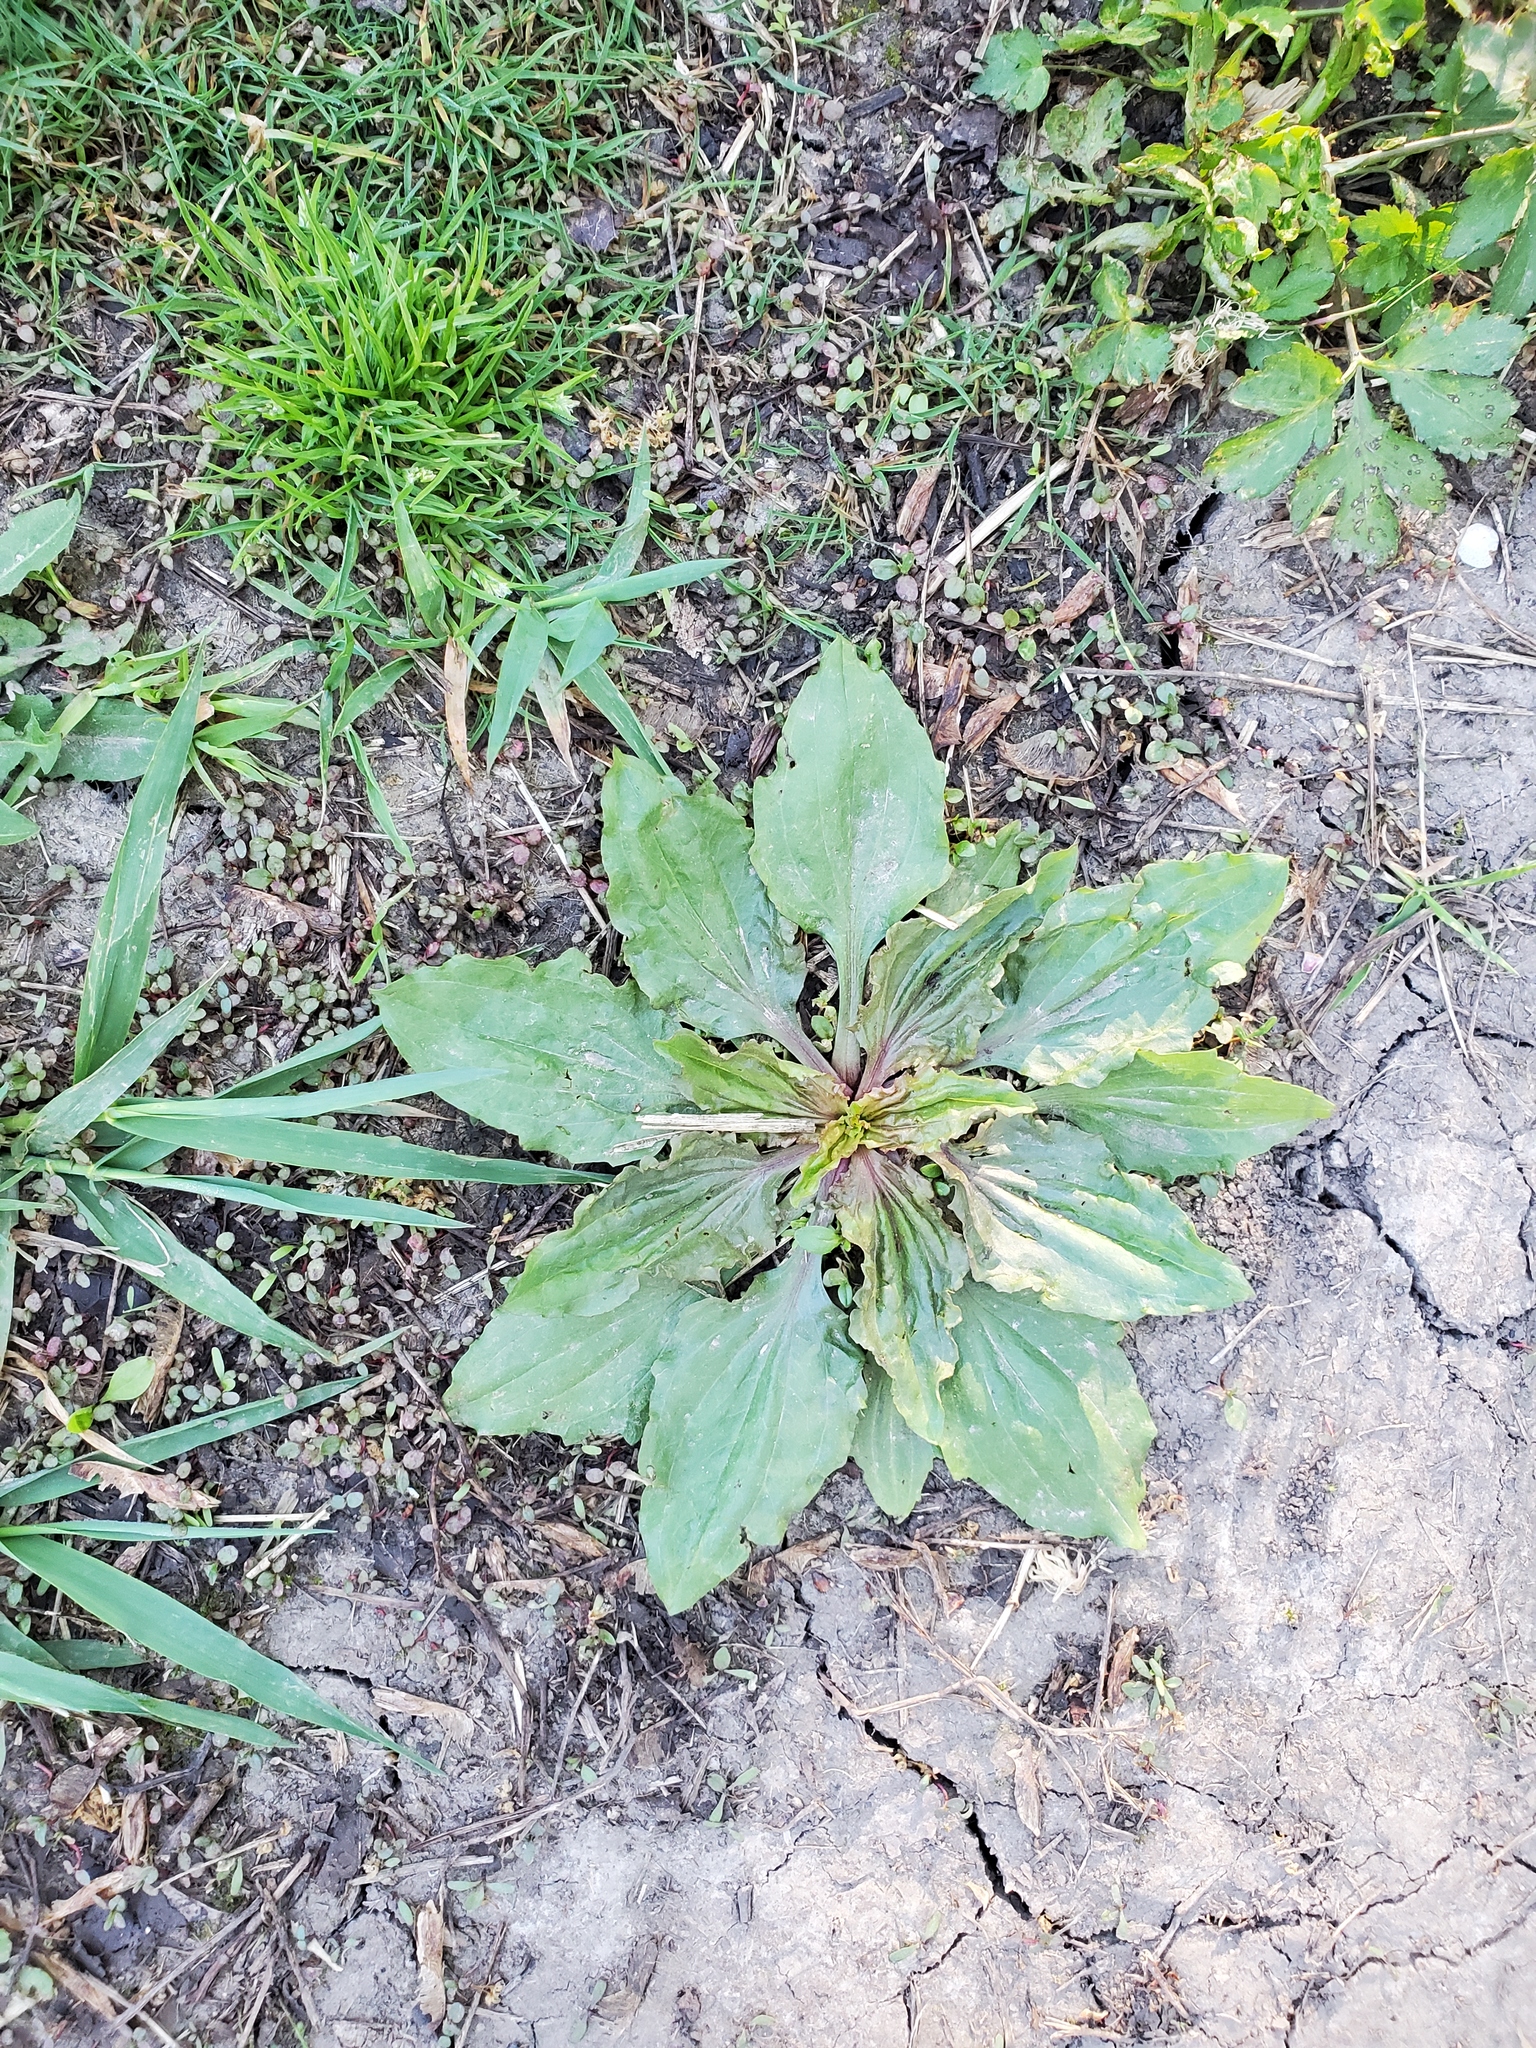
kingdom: Plantae
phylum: Tracheophyta
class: Magnoliopsida
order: Lamiales
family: Plantaginaceae
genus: Plantago
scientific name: Plantago rugelii
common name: American plantain
